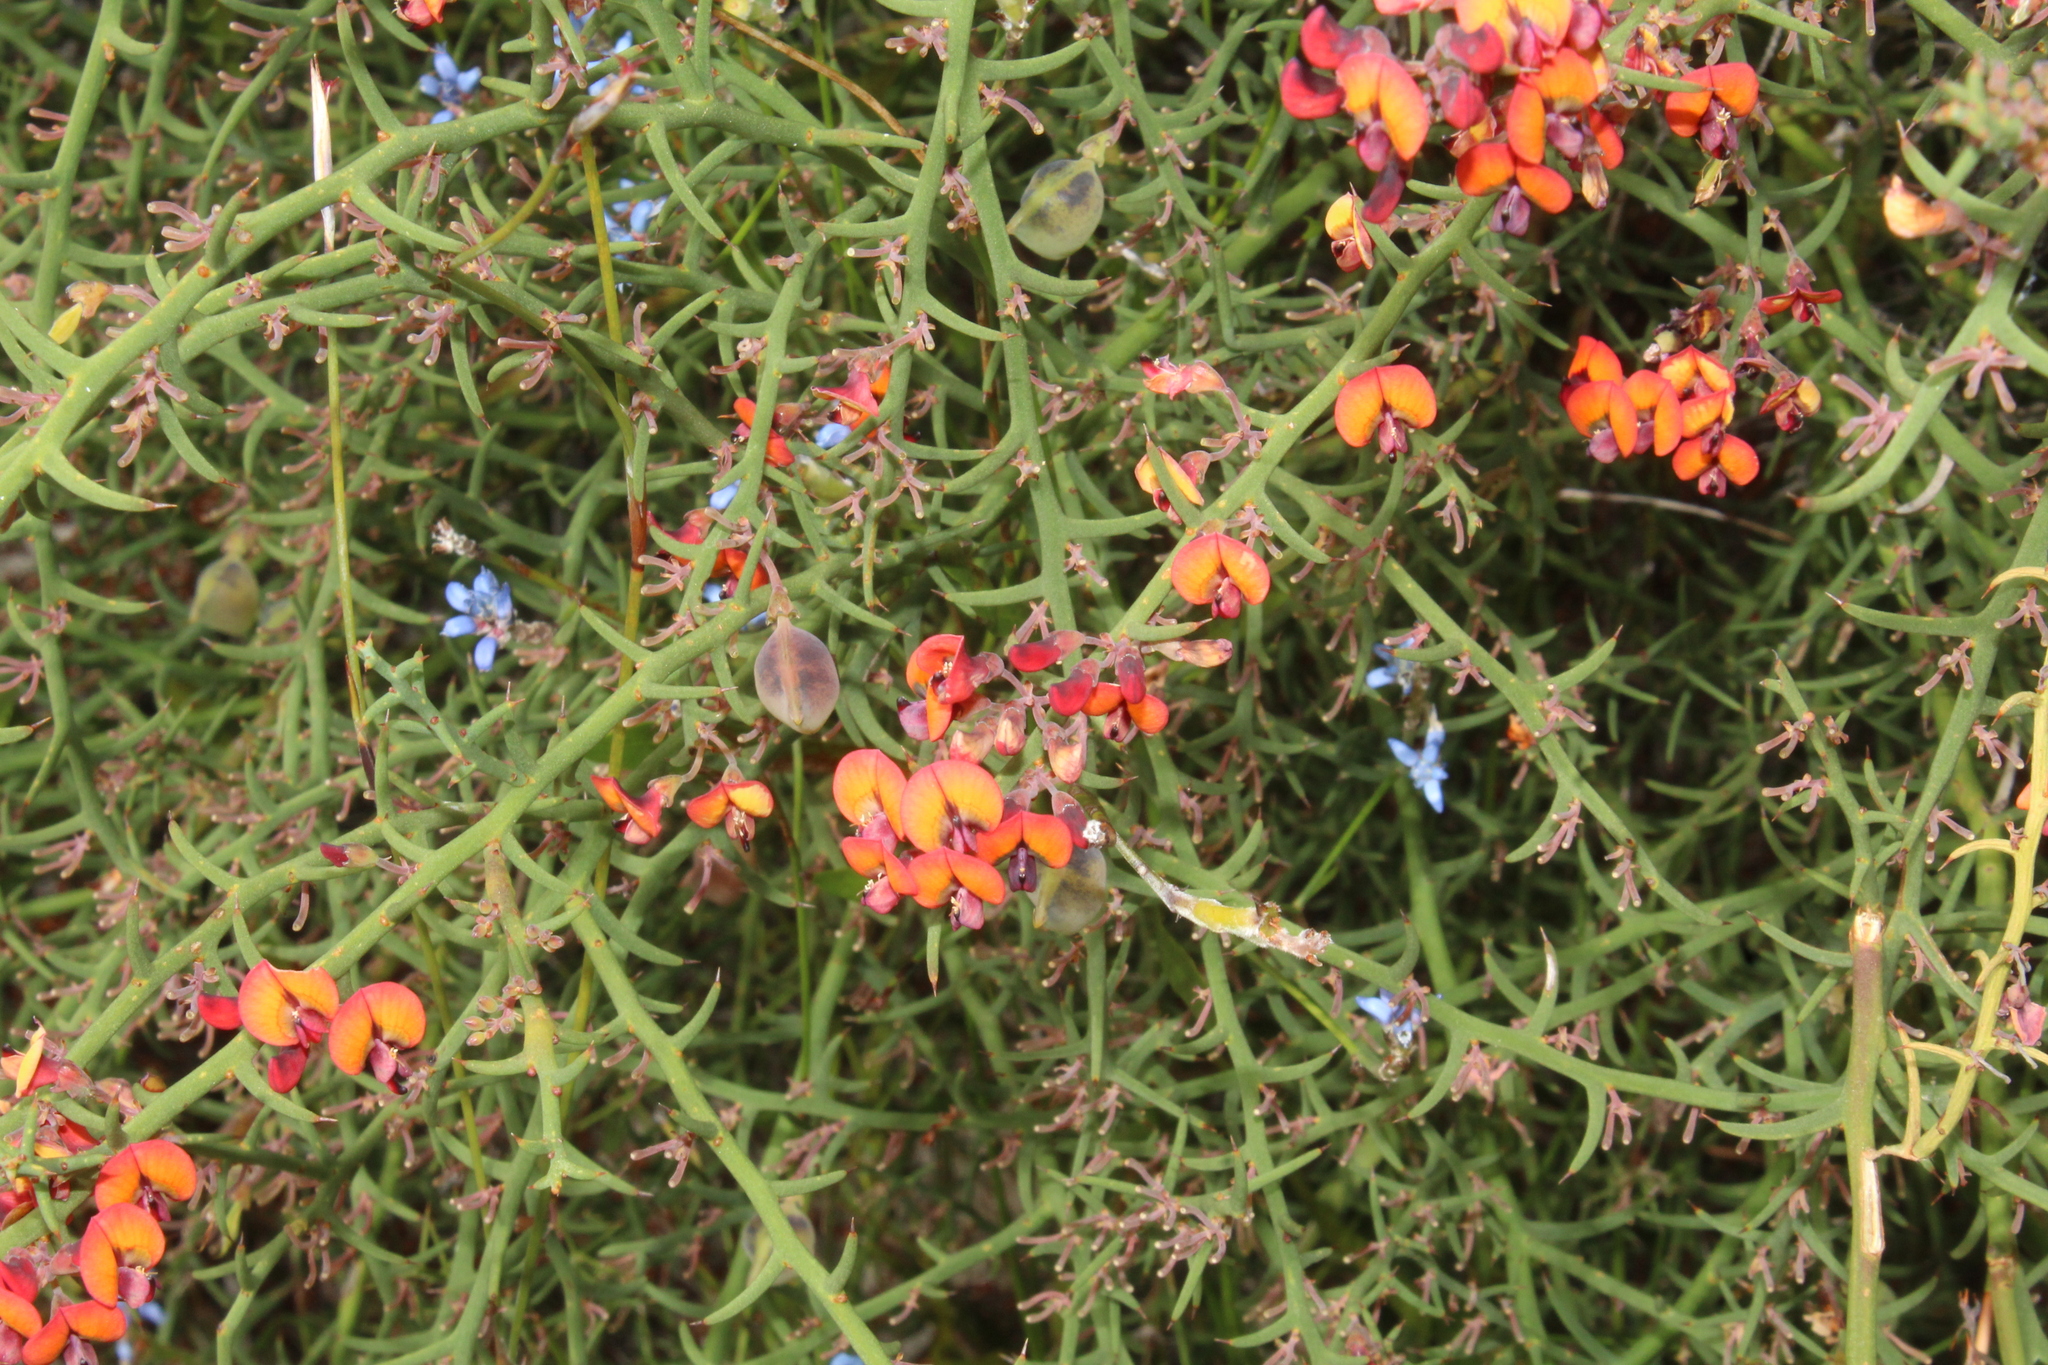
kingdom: Plantae
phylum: Tracheophyta
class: Magnoliopsida
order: Fabales
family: Fabaceae
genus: Daviesia
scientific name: Daviesia incrassata
